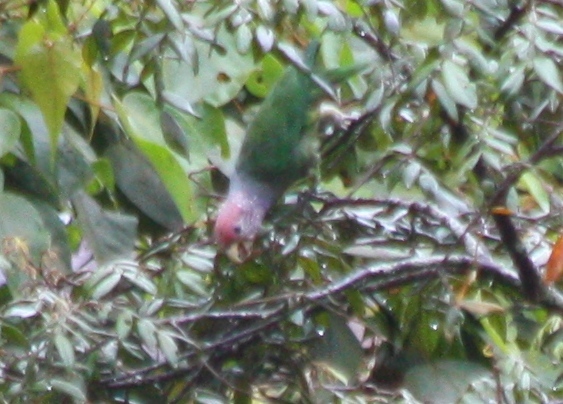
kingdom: Animalia
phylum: Chordata
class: Aves
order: Psittaciformes
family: Psittacidae
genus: Pionus
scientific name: Pionus tumultuosus
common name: Plum-crowned parrot
